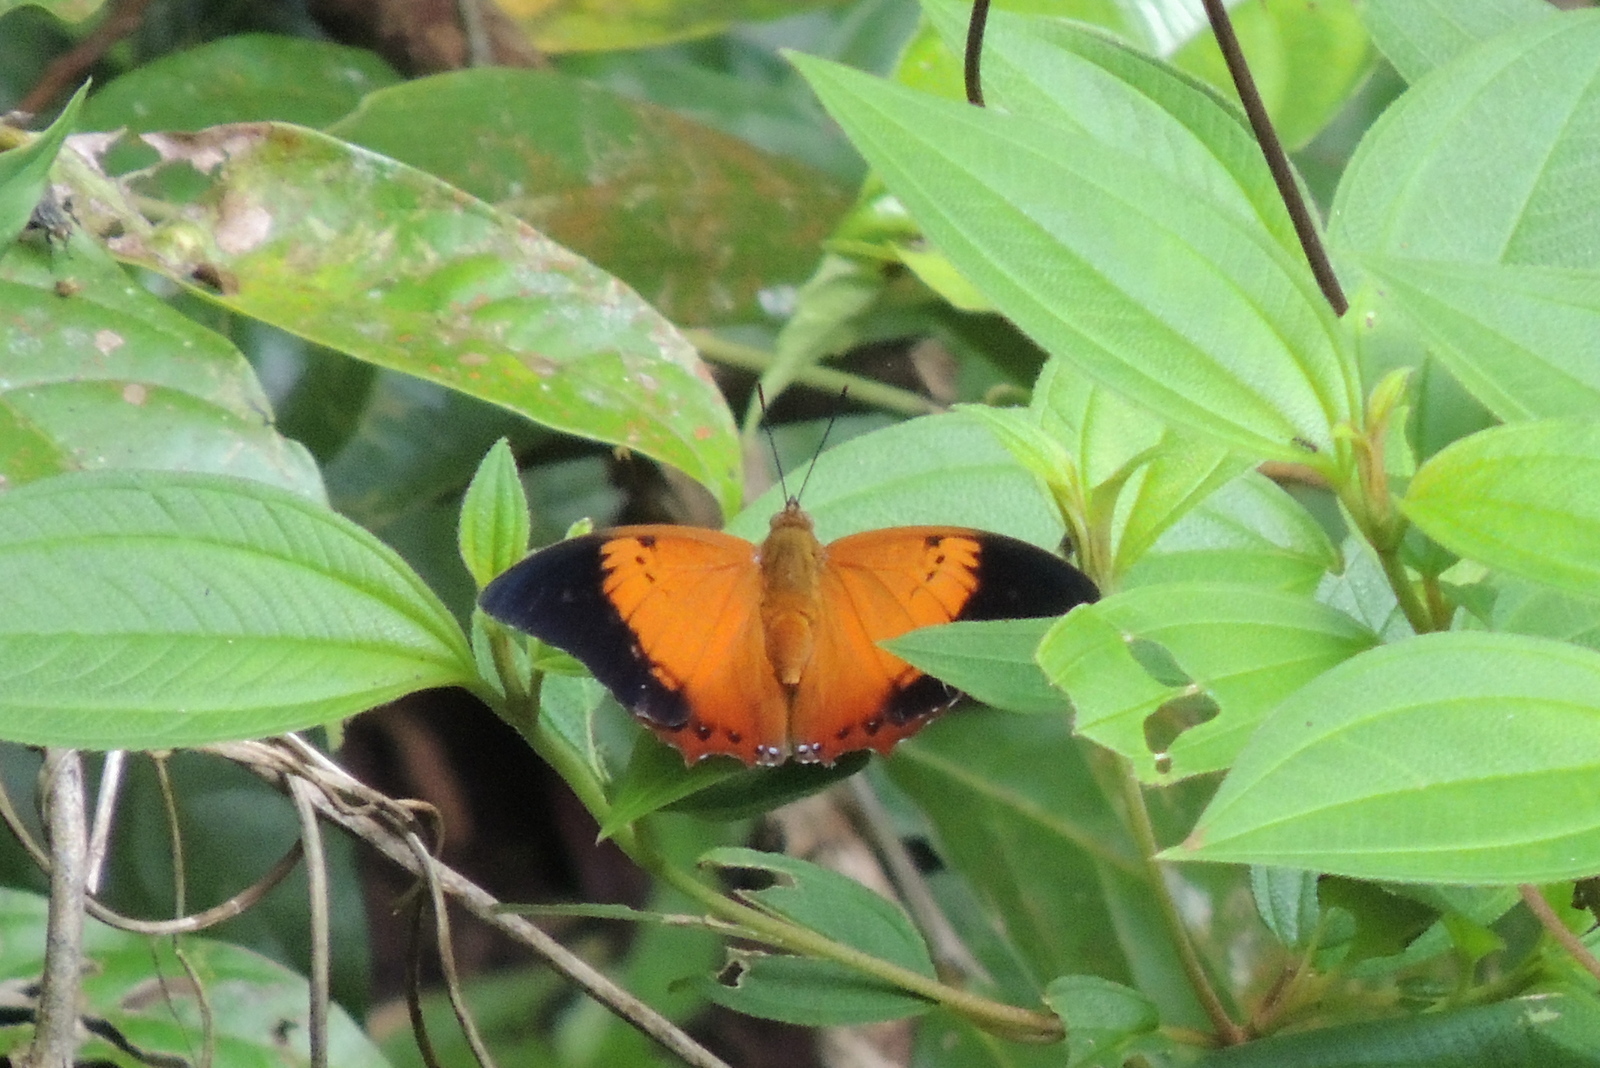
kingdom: Animalia
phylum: Arthropoda
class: Insecta
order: Lepidoptera
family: Nymphalidae
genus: Charaxes
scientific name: Charaxes bernardus
